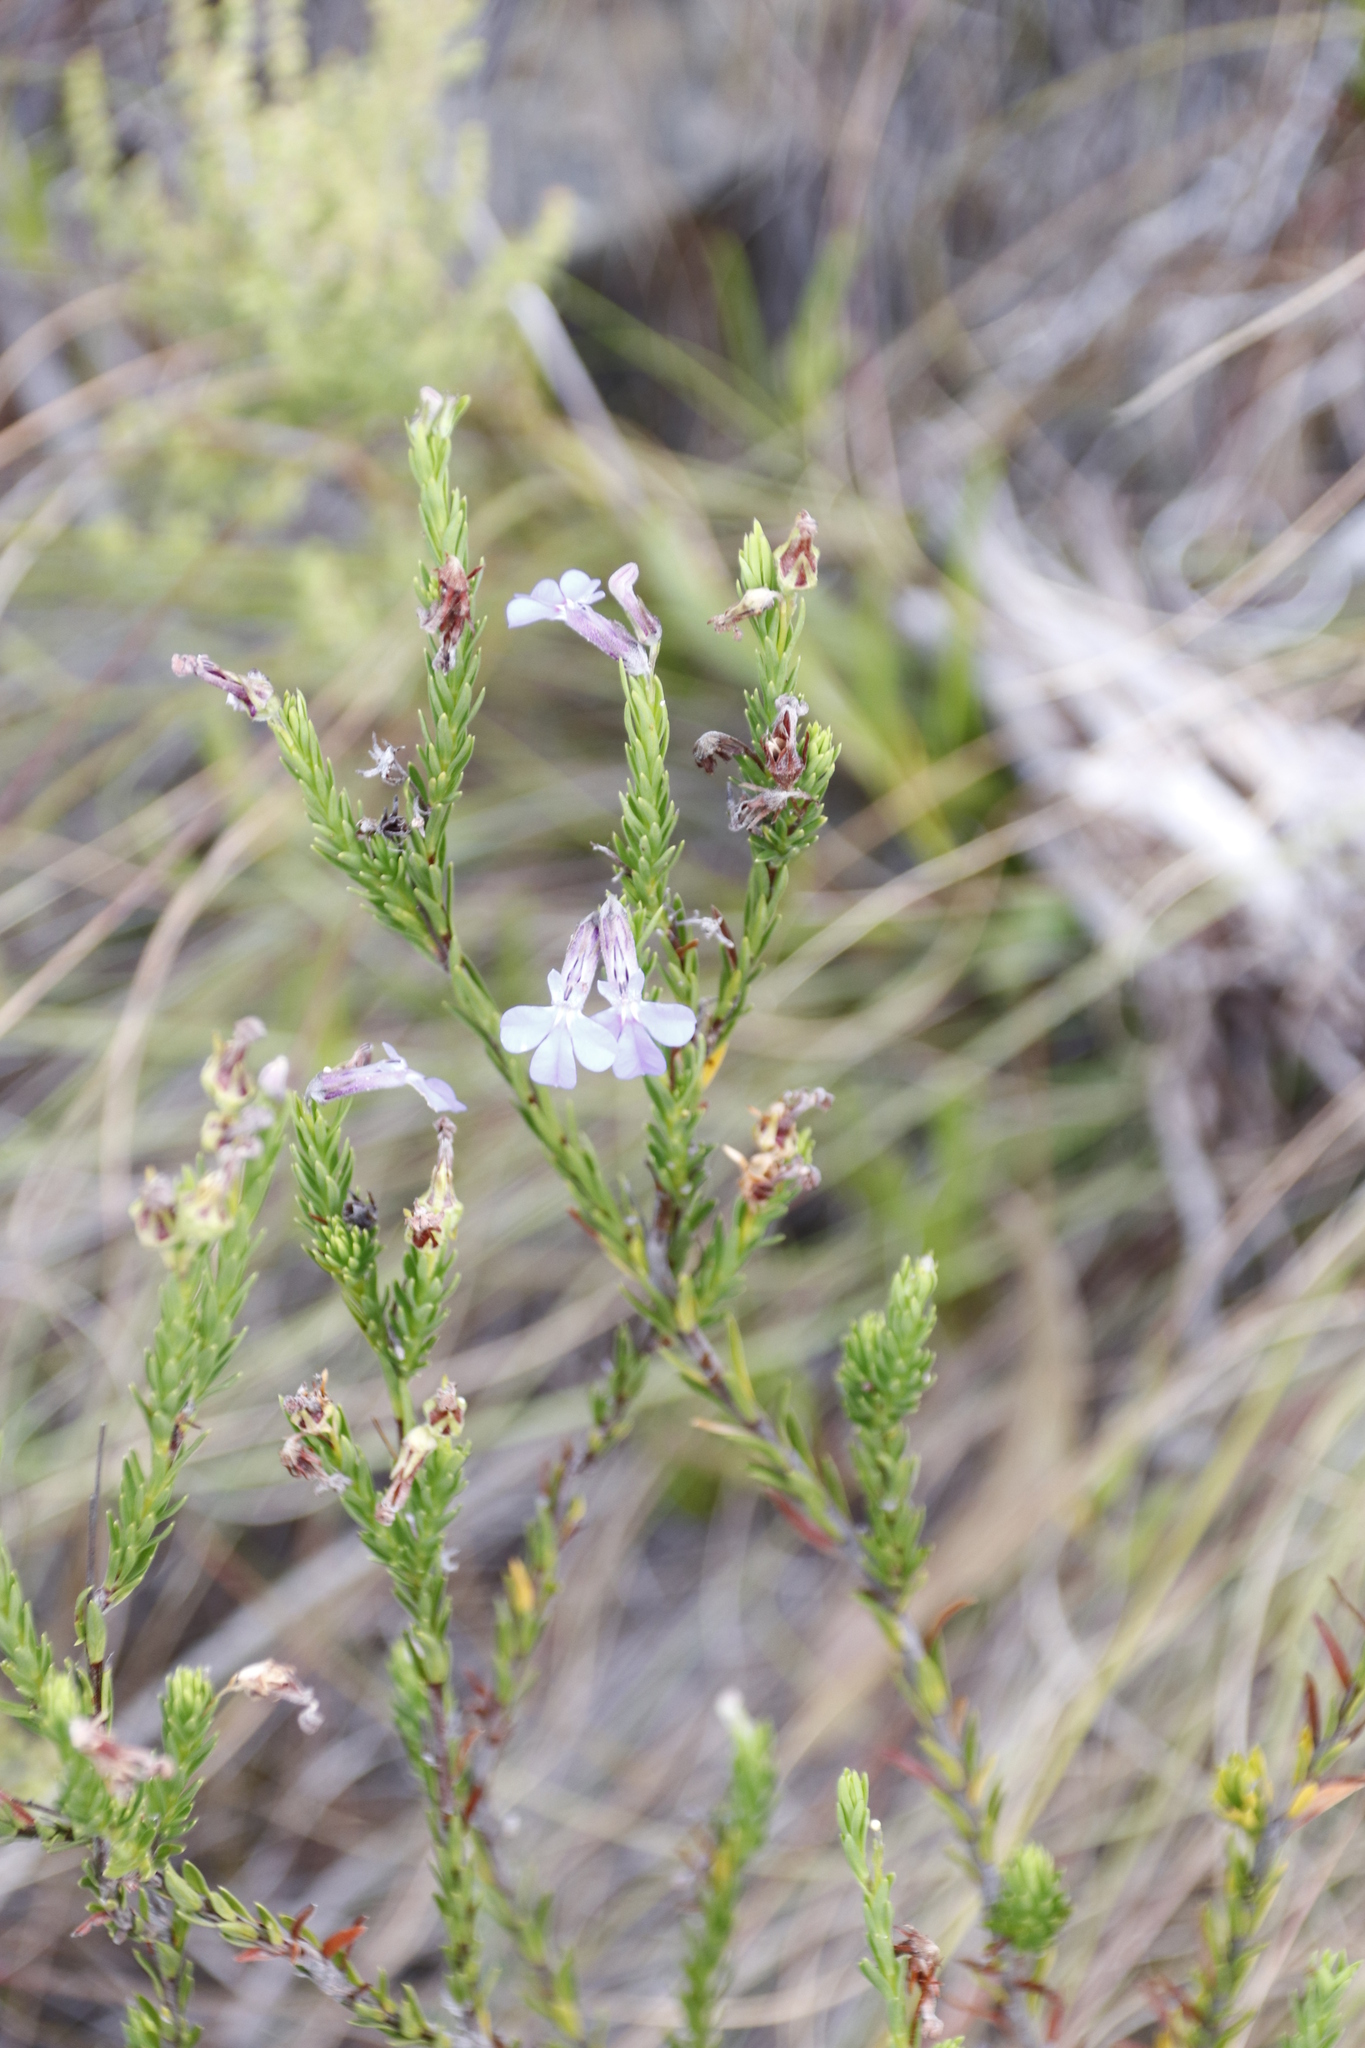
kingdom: Plantae
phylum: Tracheophyta
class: Magnoliopsida
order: Asterales
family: Campanulaceae
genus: Lobelia
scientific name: Lobelia pinifolia
